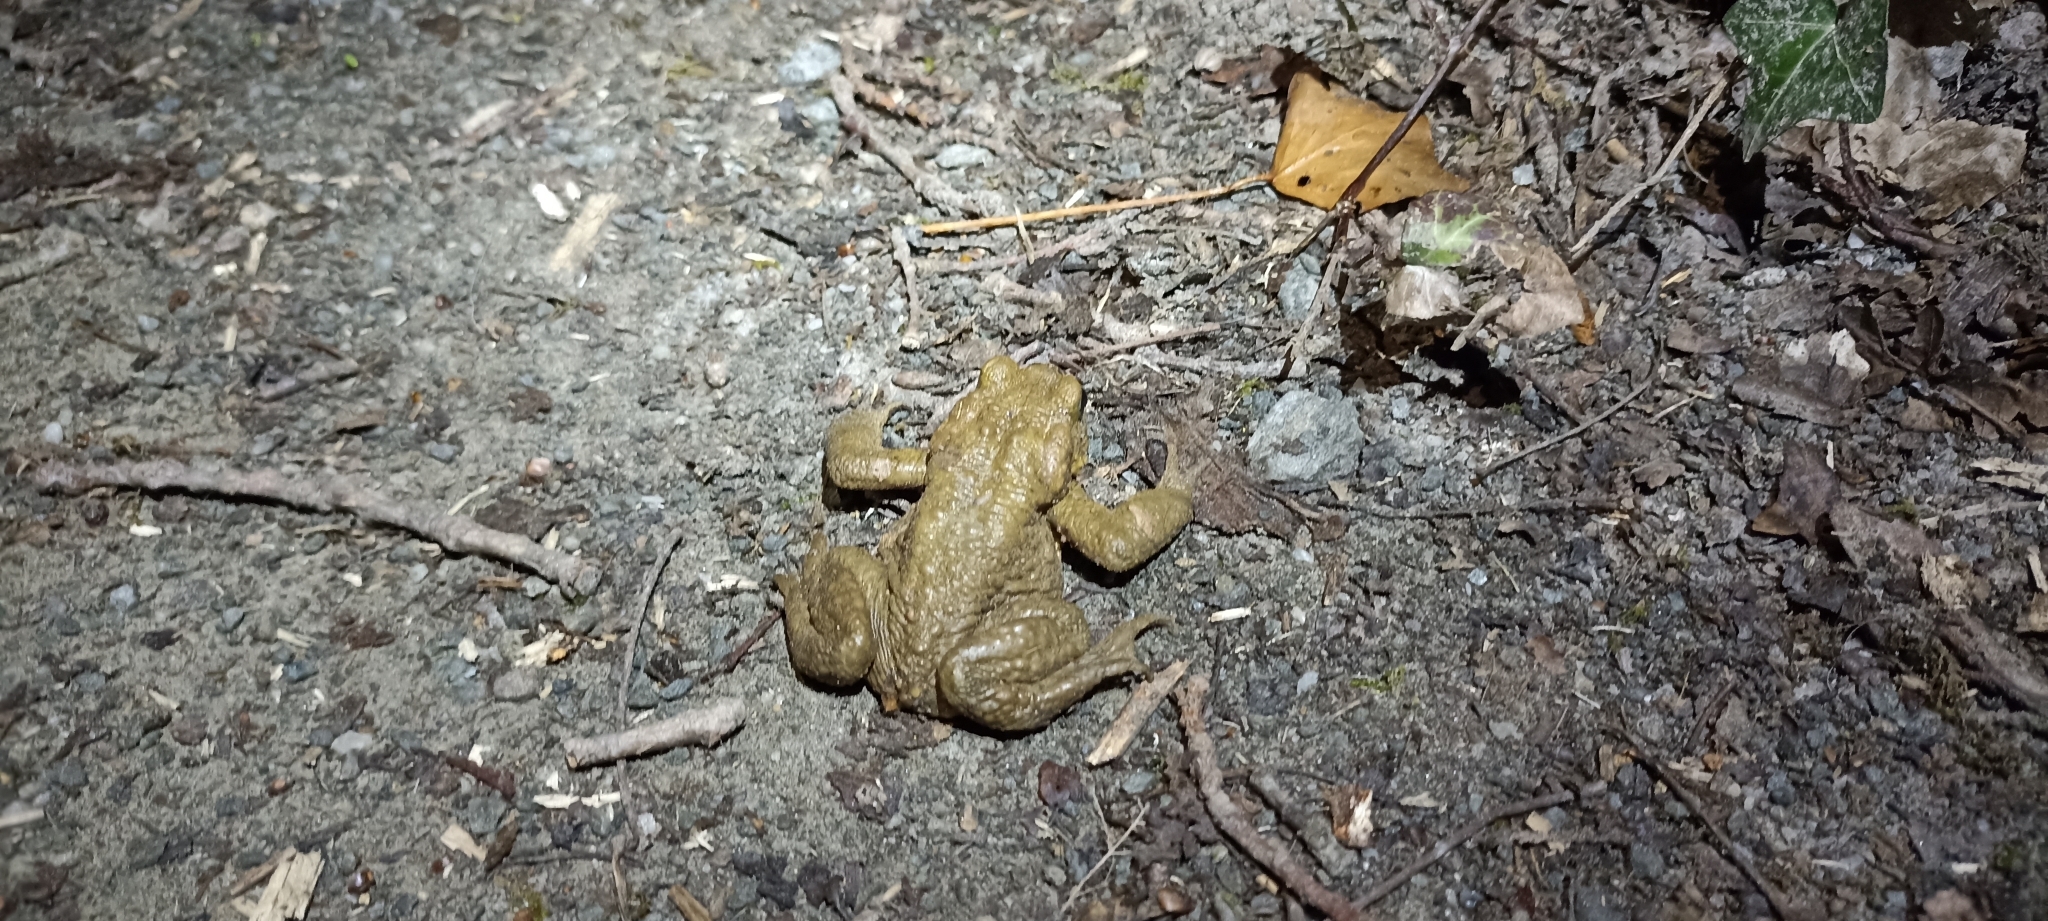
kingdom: Animalia
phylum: Chordata
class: Amphibia
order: Anura
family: Bufonidae
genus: Bufo
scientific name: Bufo spinosus
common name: Western common toad
